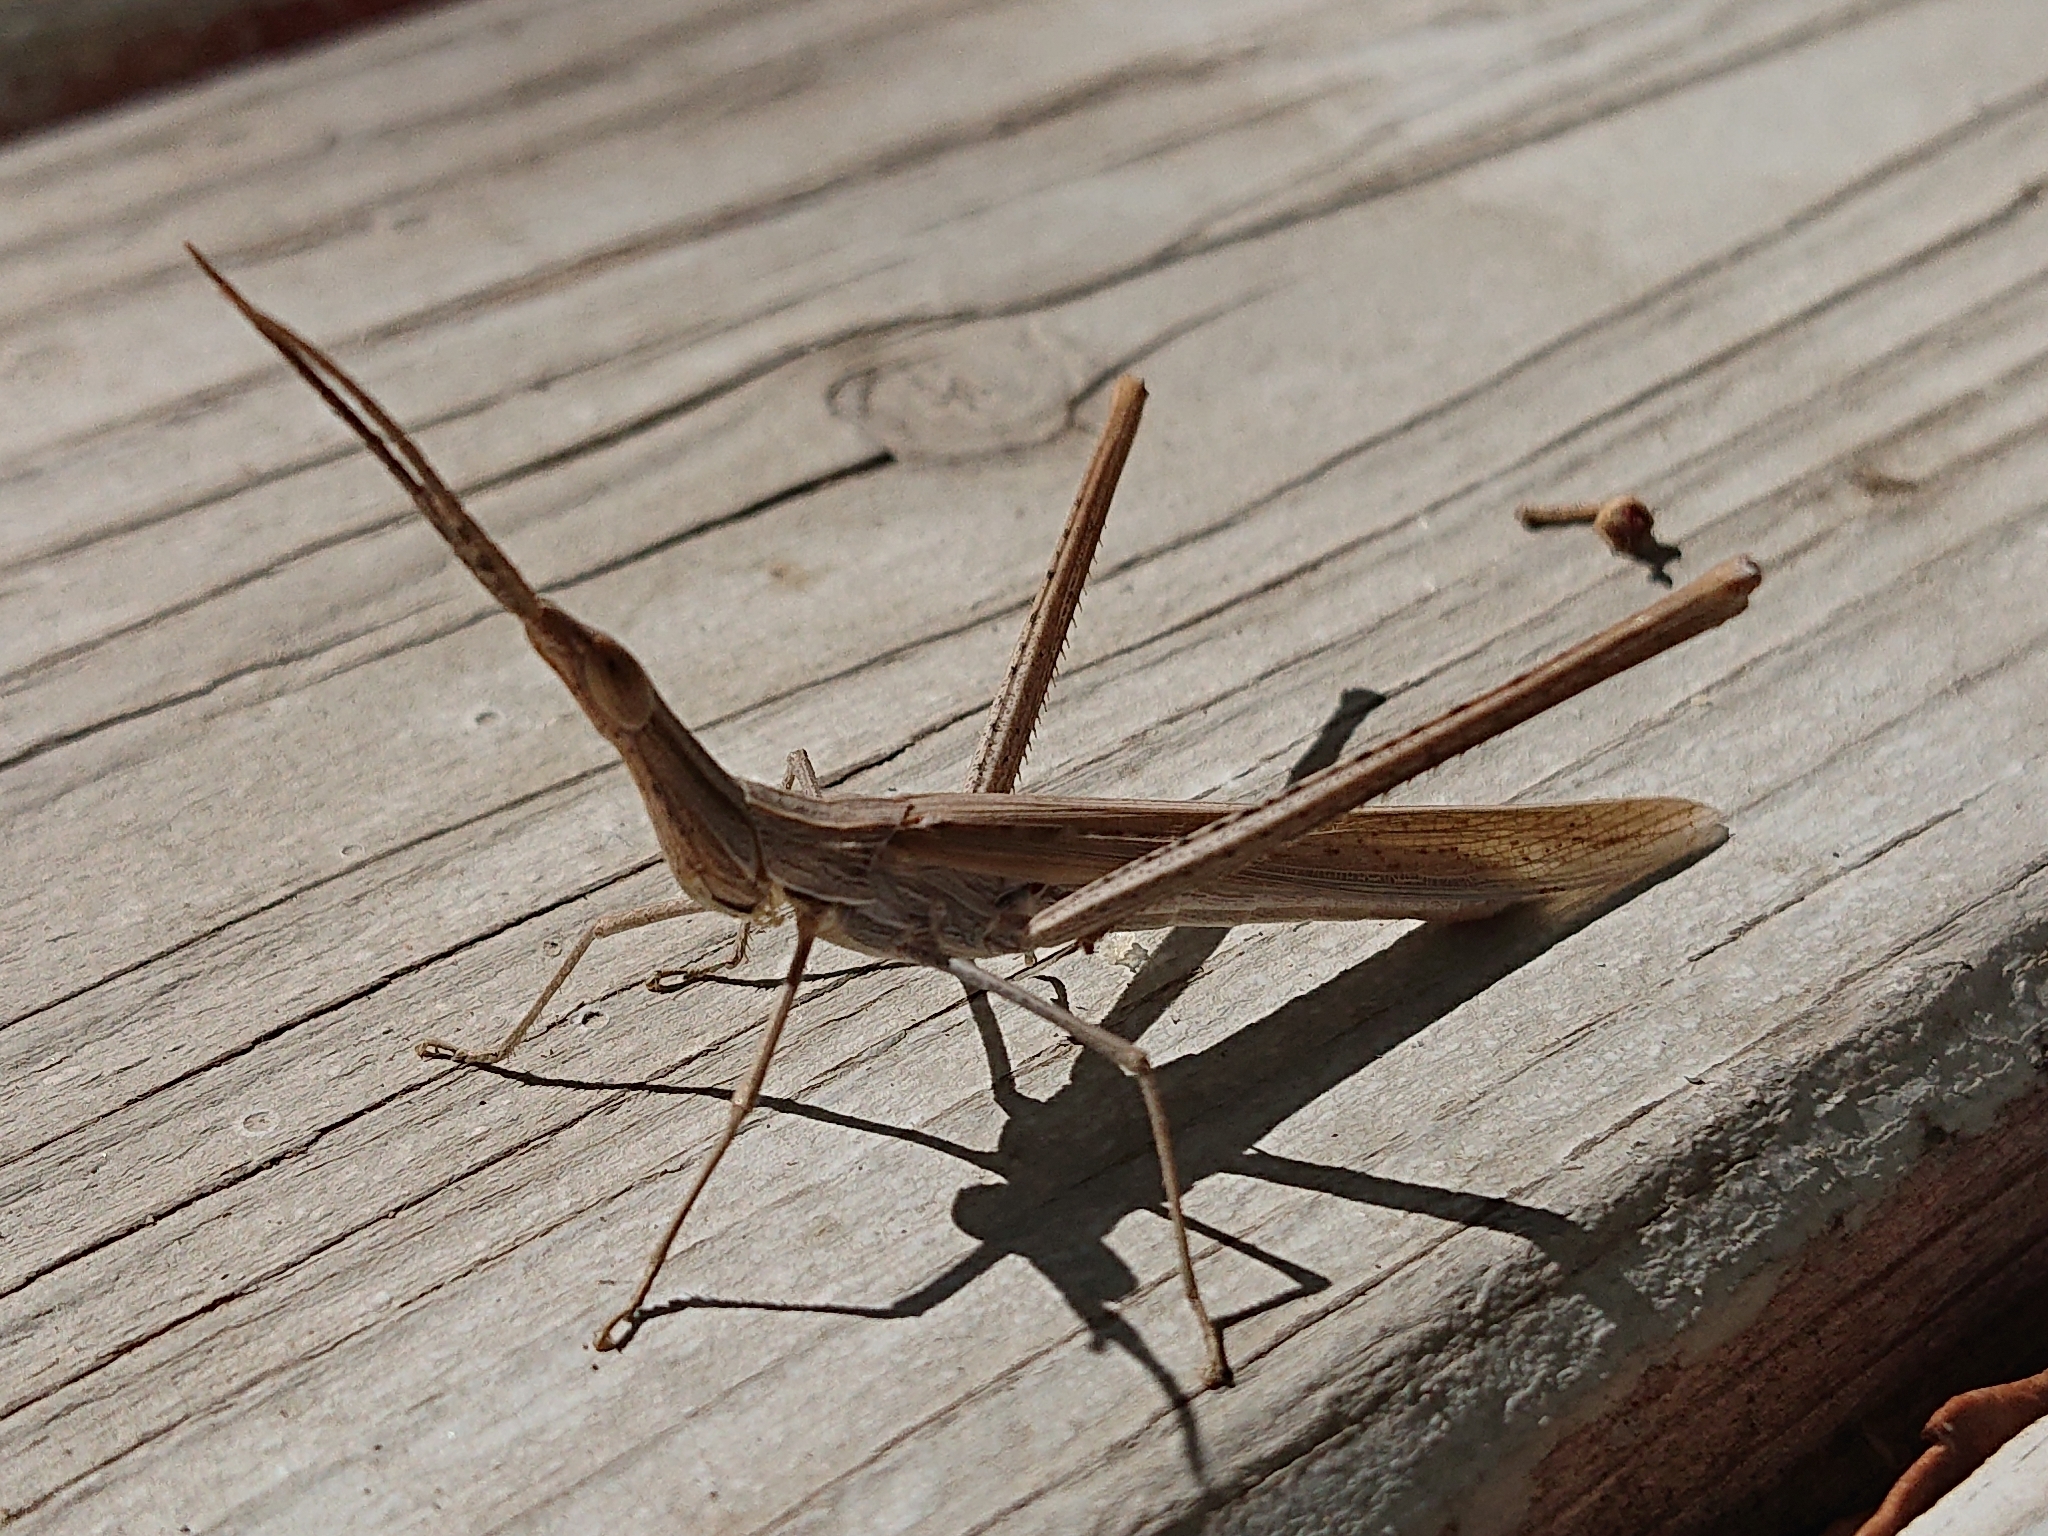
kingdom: Animalia
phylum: Arthropoda
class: Insecta
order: Orthoptera
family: Acrididae
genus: Acrida
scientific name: Acrida ungarica
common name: Common cone-headed grasshopper
